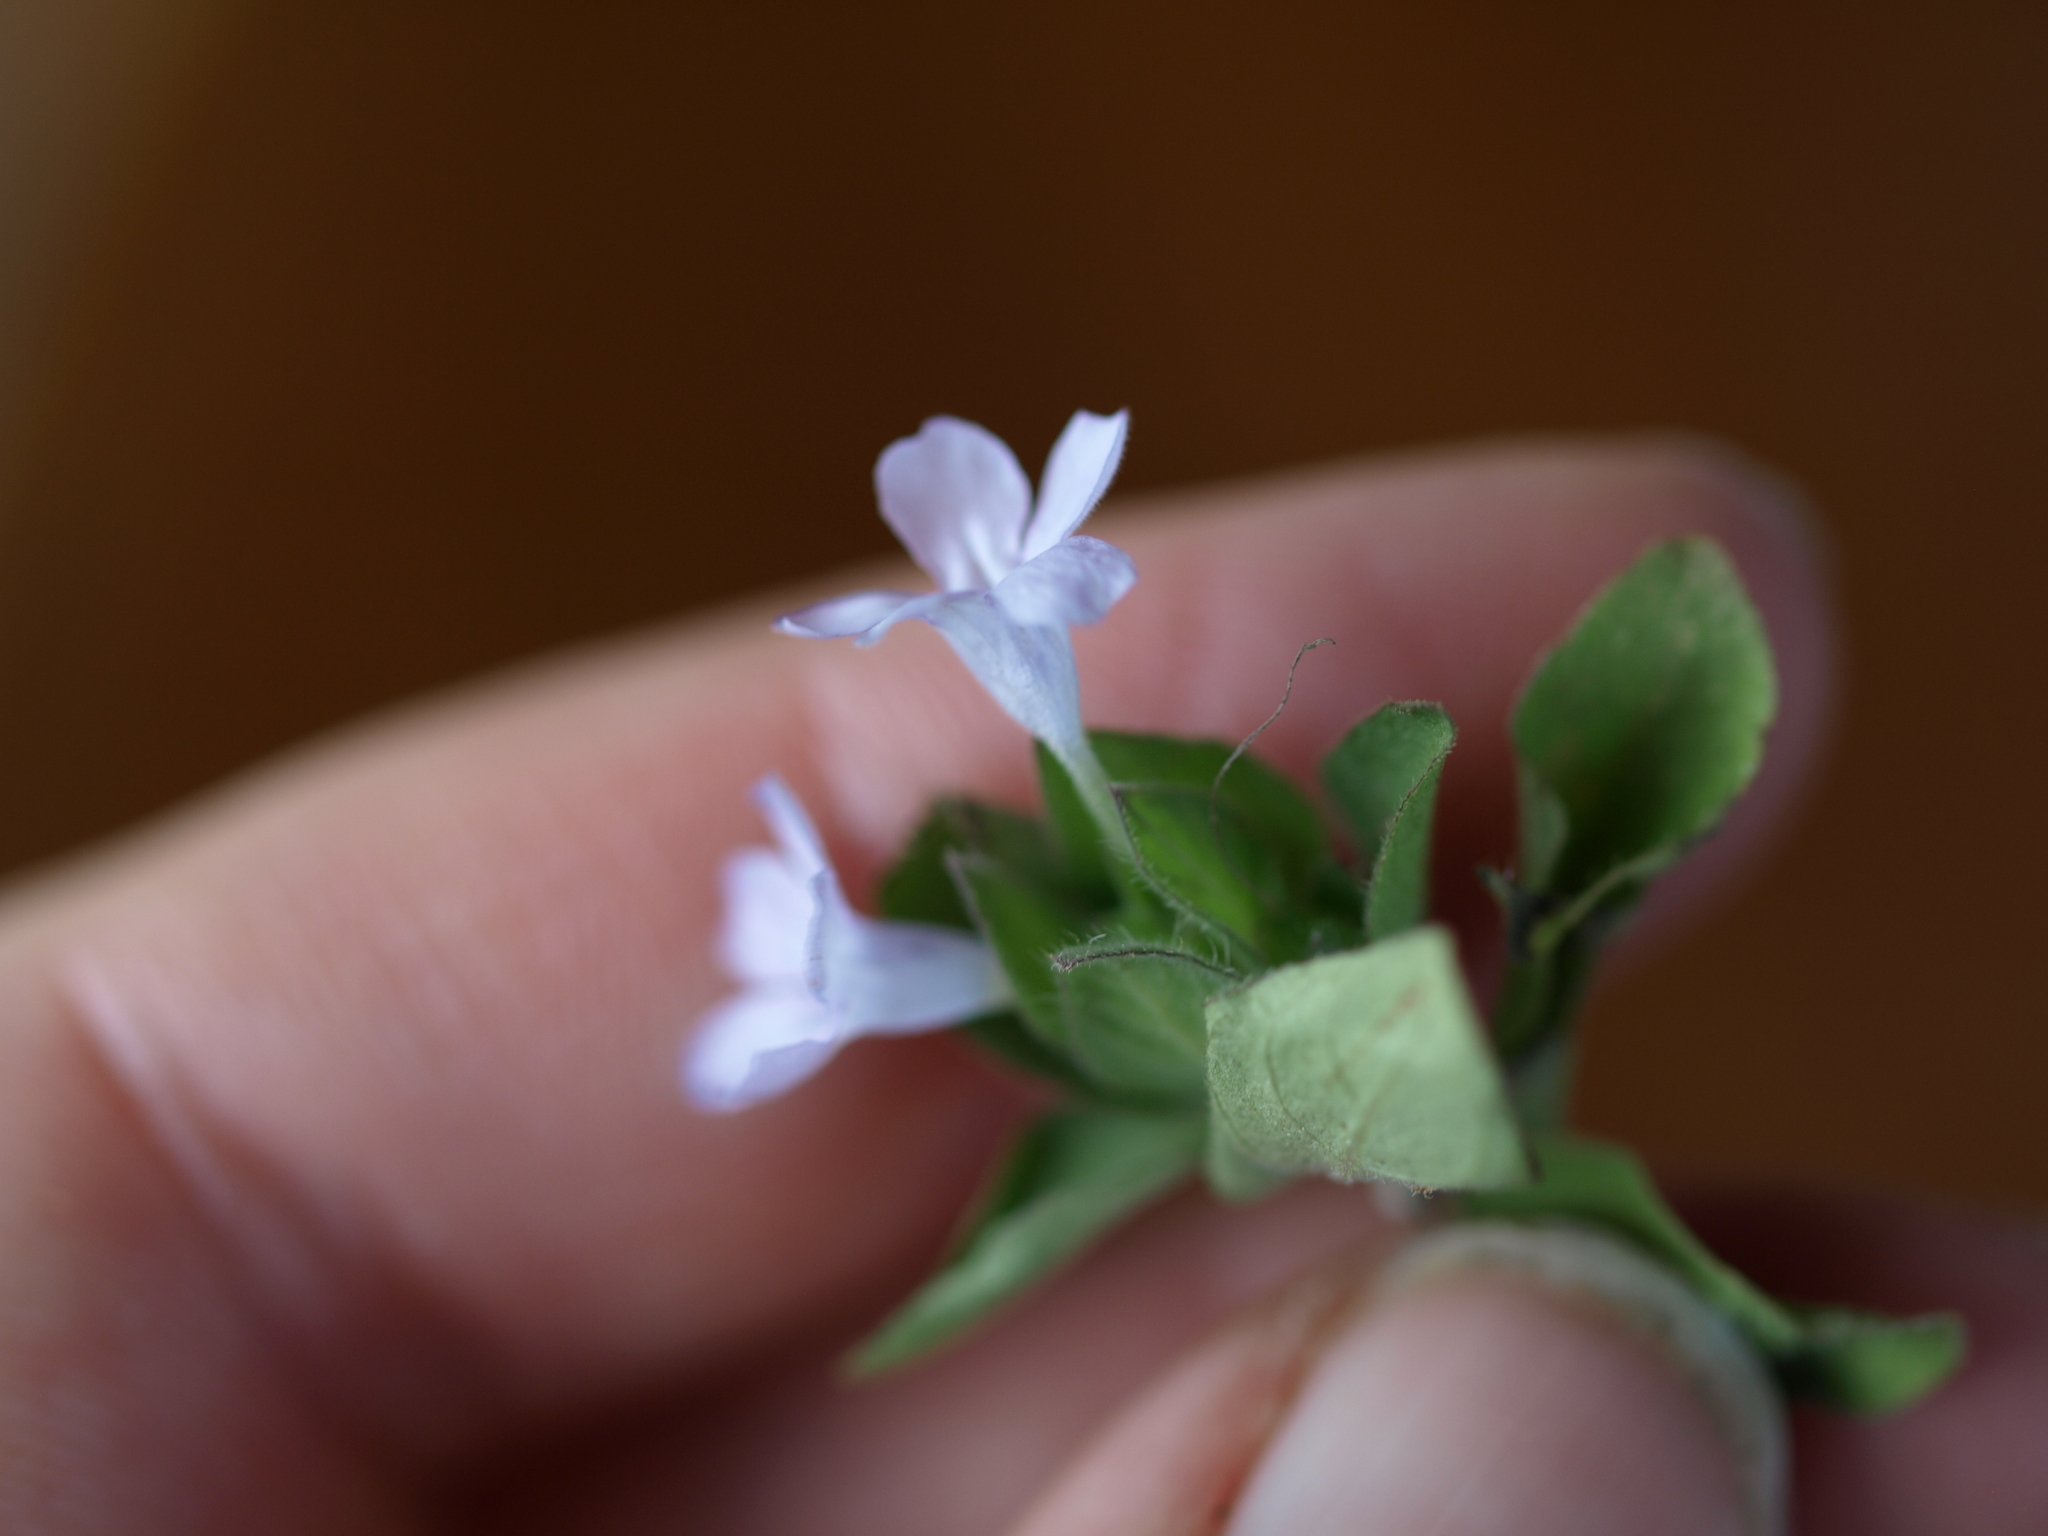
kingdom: Plantae
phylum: Tracheophyta
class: Magnoliopsida
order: Lamiales
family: Acanthaceae
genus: Ruellia
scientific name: Ruellia costaricensis
